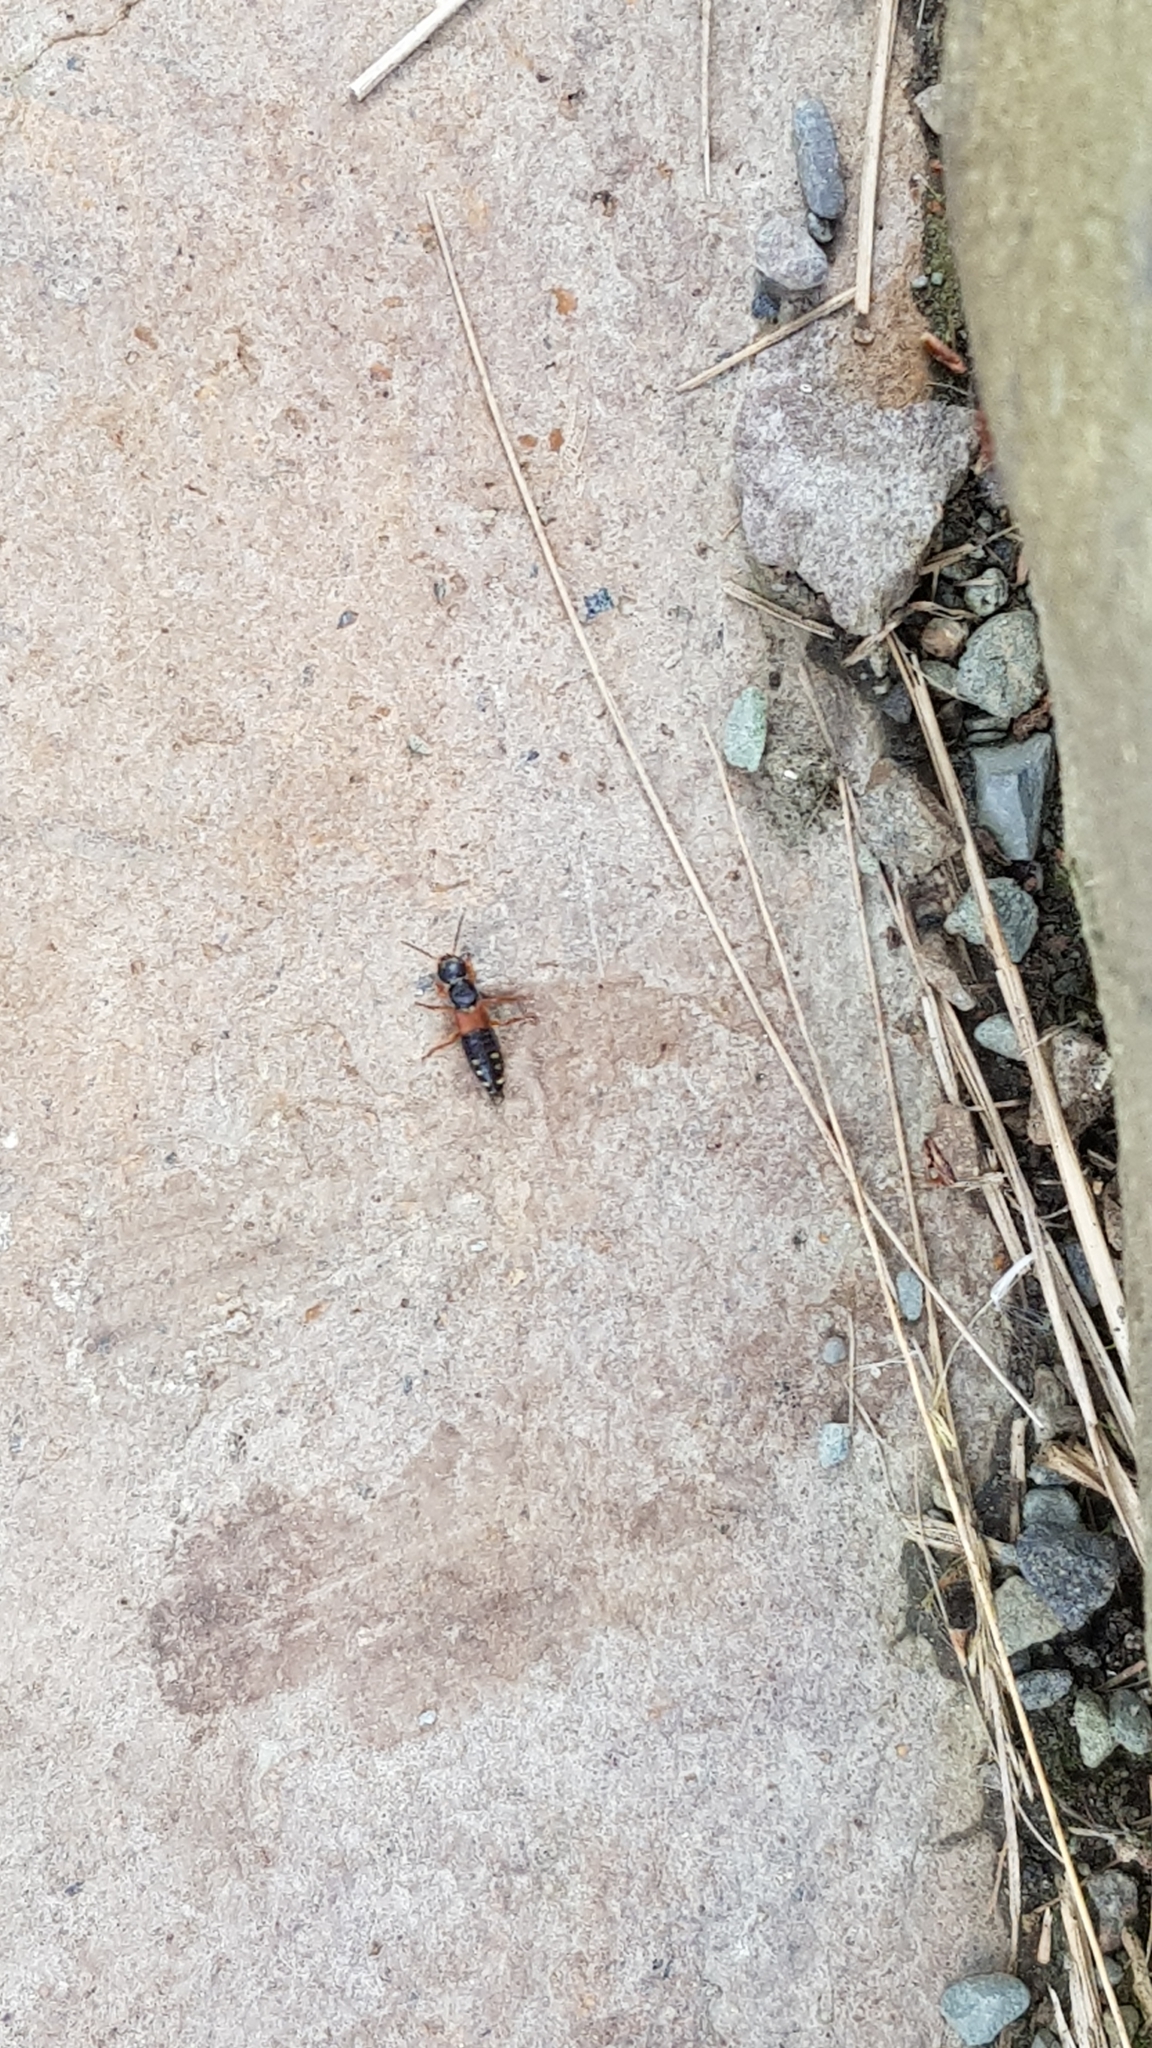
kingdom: Animalia
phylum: Arthropoda
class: Insecta
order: Coleoptera
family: Staphylinidae
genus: Staphylinus
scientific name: Staphylinus erythropterus
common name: Staph beetle
